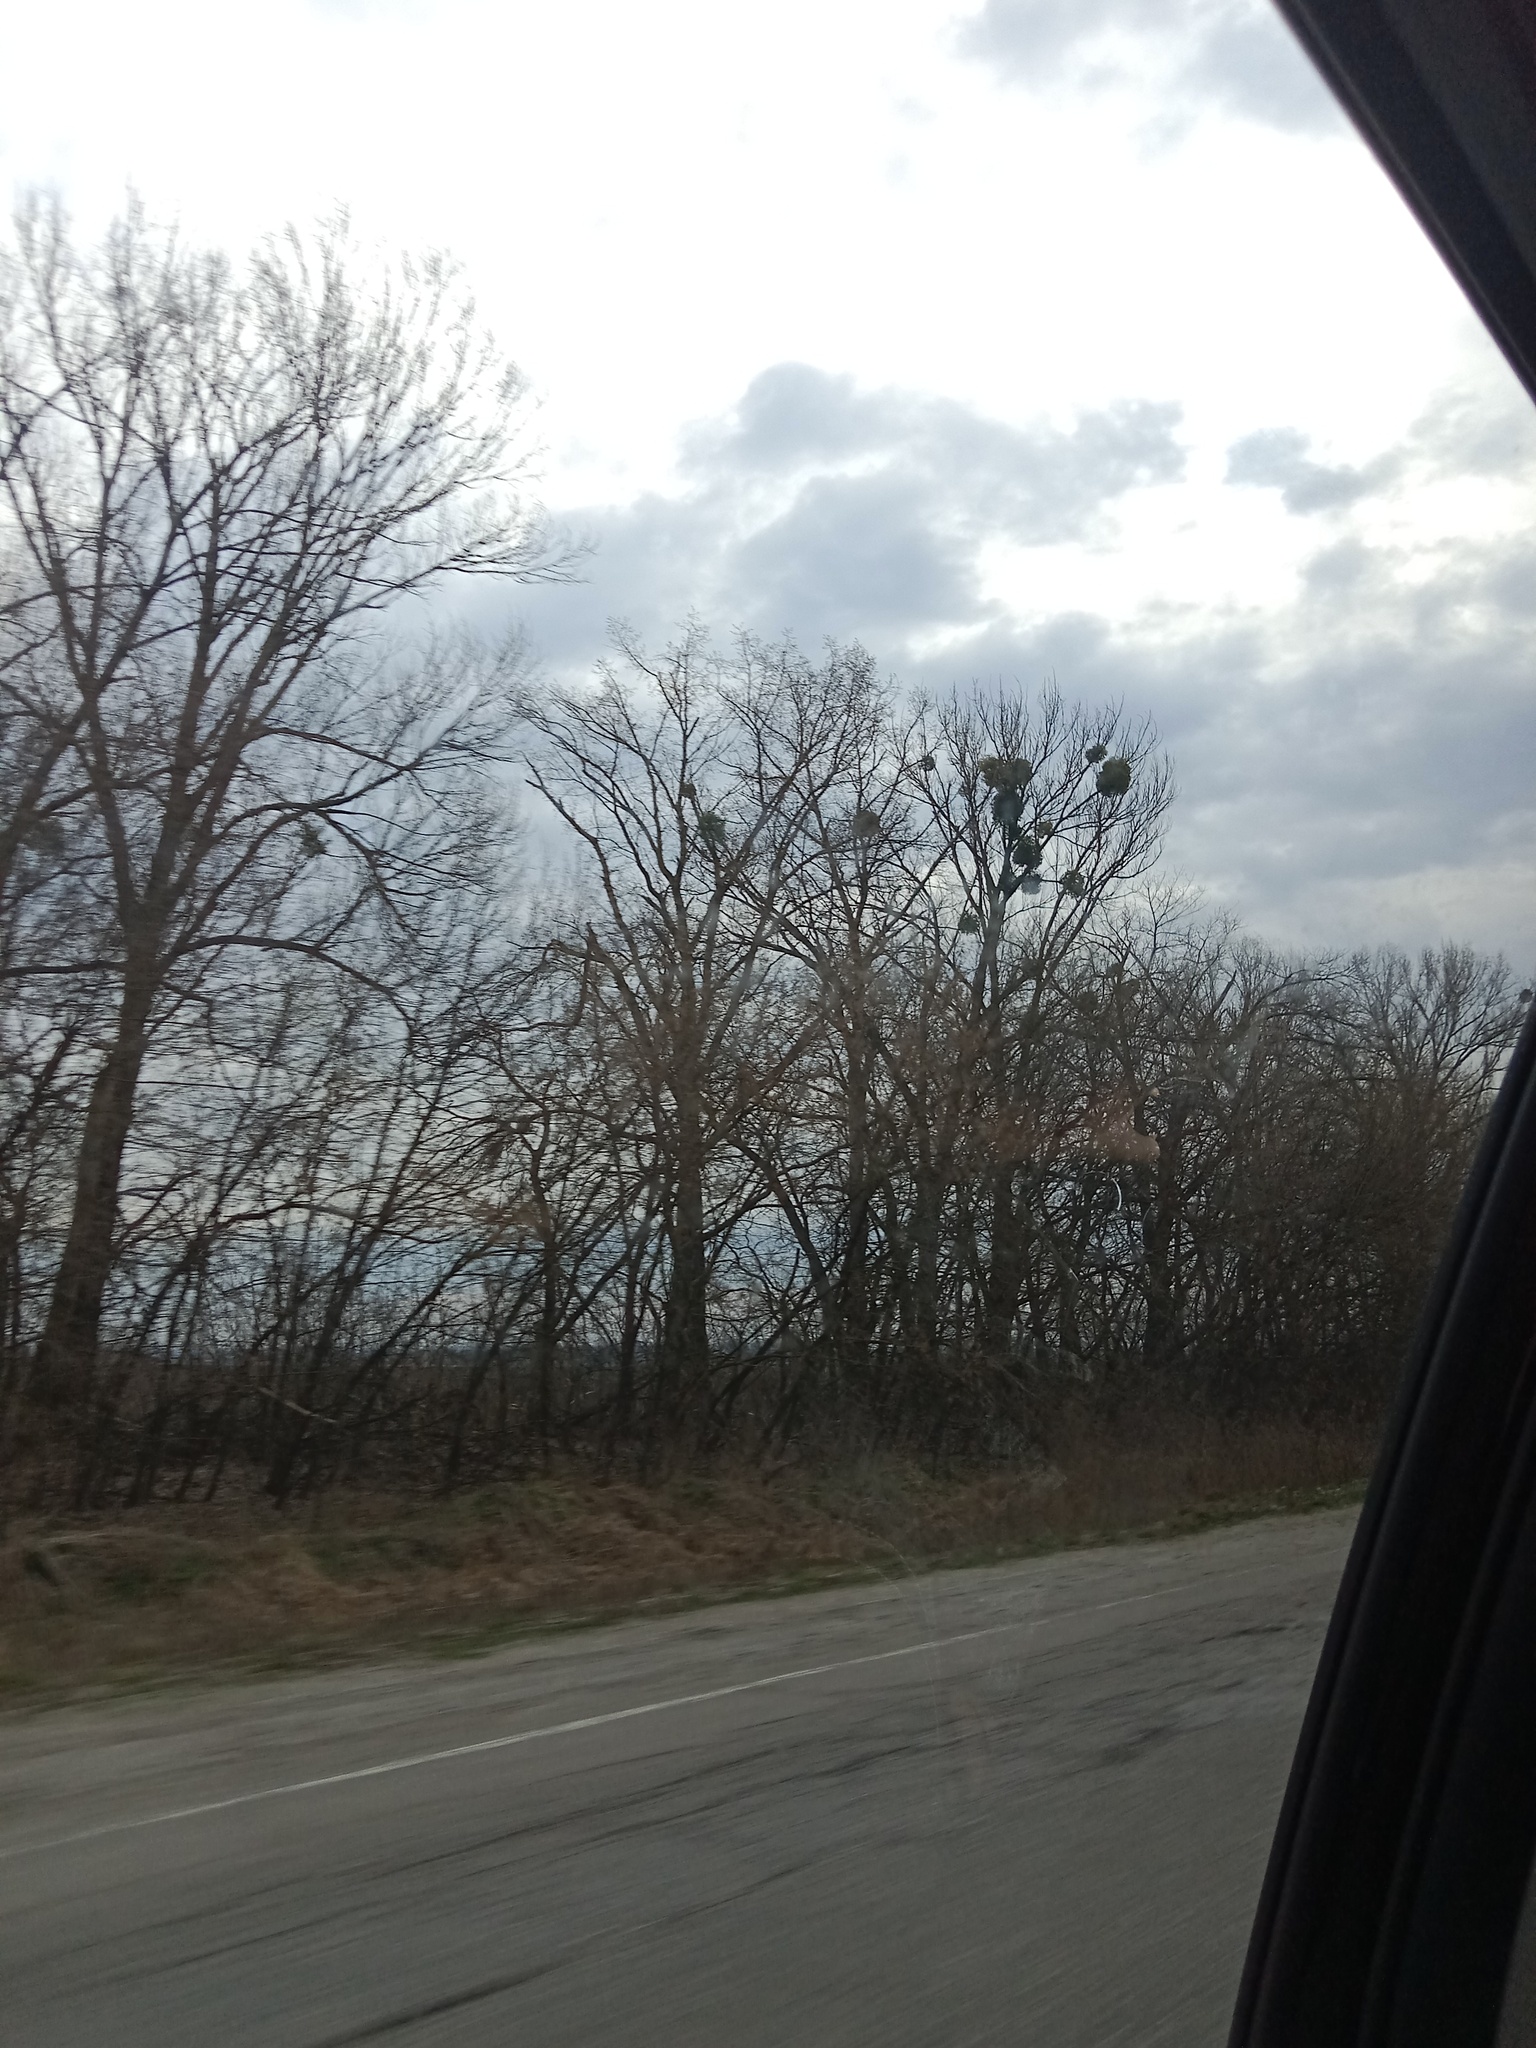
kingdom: Plantae
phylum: Tracheophyta
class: Magnoliopsida
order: Santalales
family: Viscaceae
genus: Viscum
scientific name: Viscum album
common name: Mistletoe
